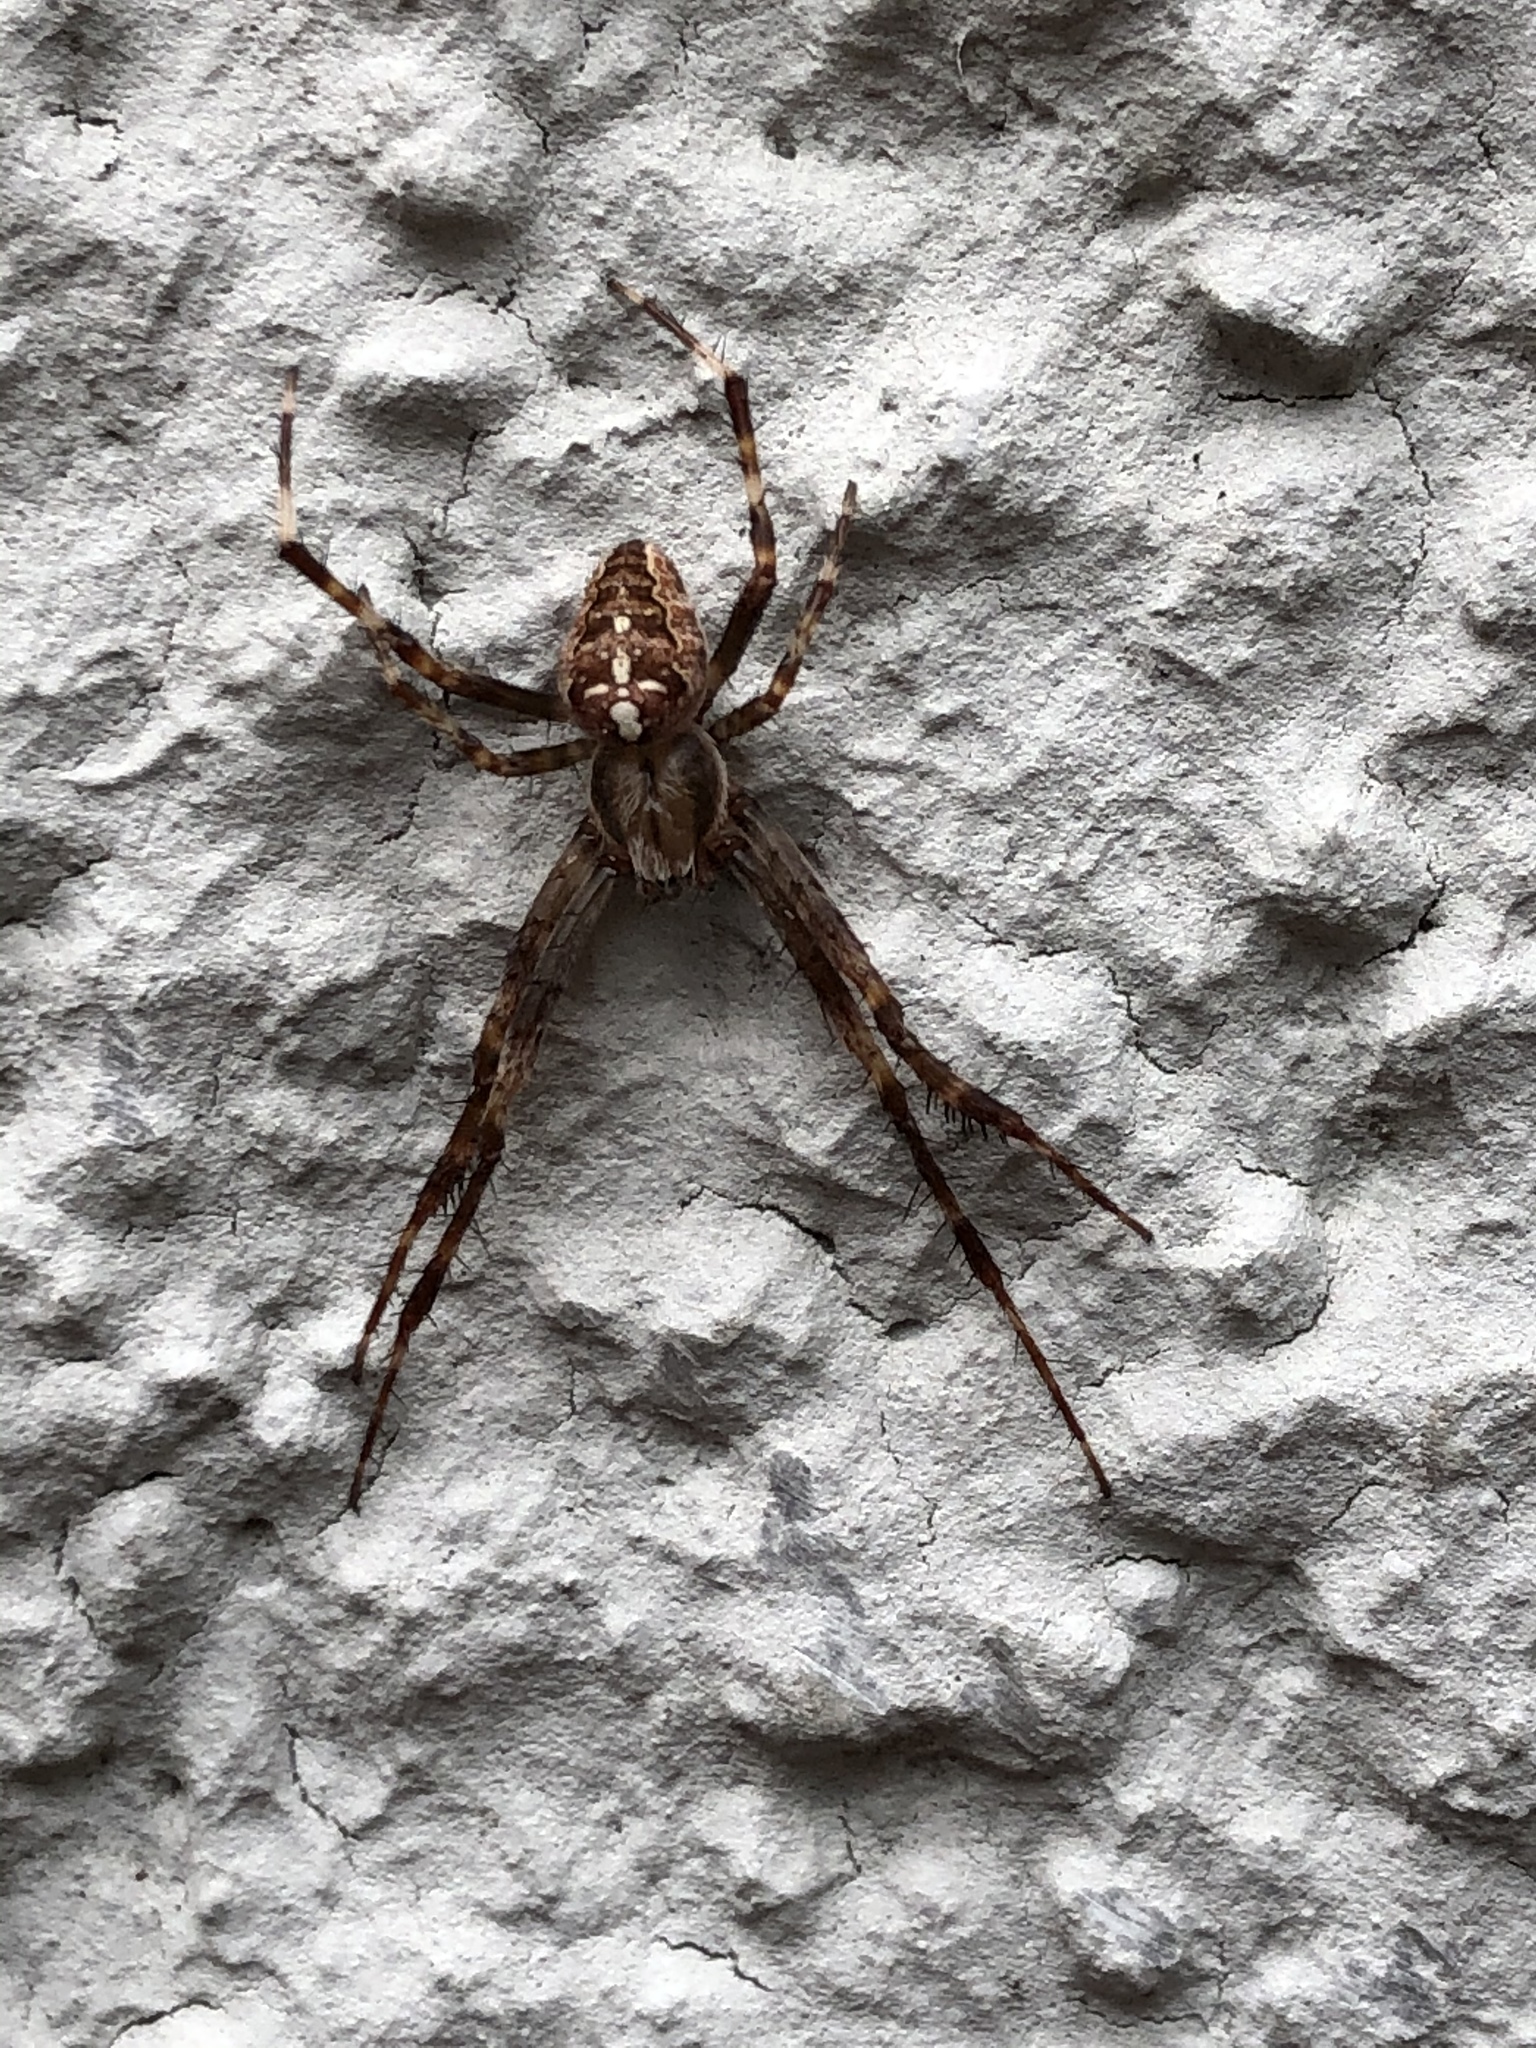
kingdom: Animalia
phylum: Arthropoda
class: Arachnida
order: Araneae
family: Araneidae
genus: Araneus
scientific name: Araneus diadematus
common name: Cross orbweaver
